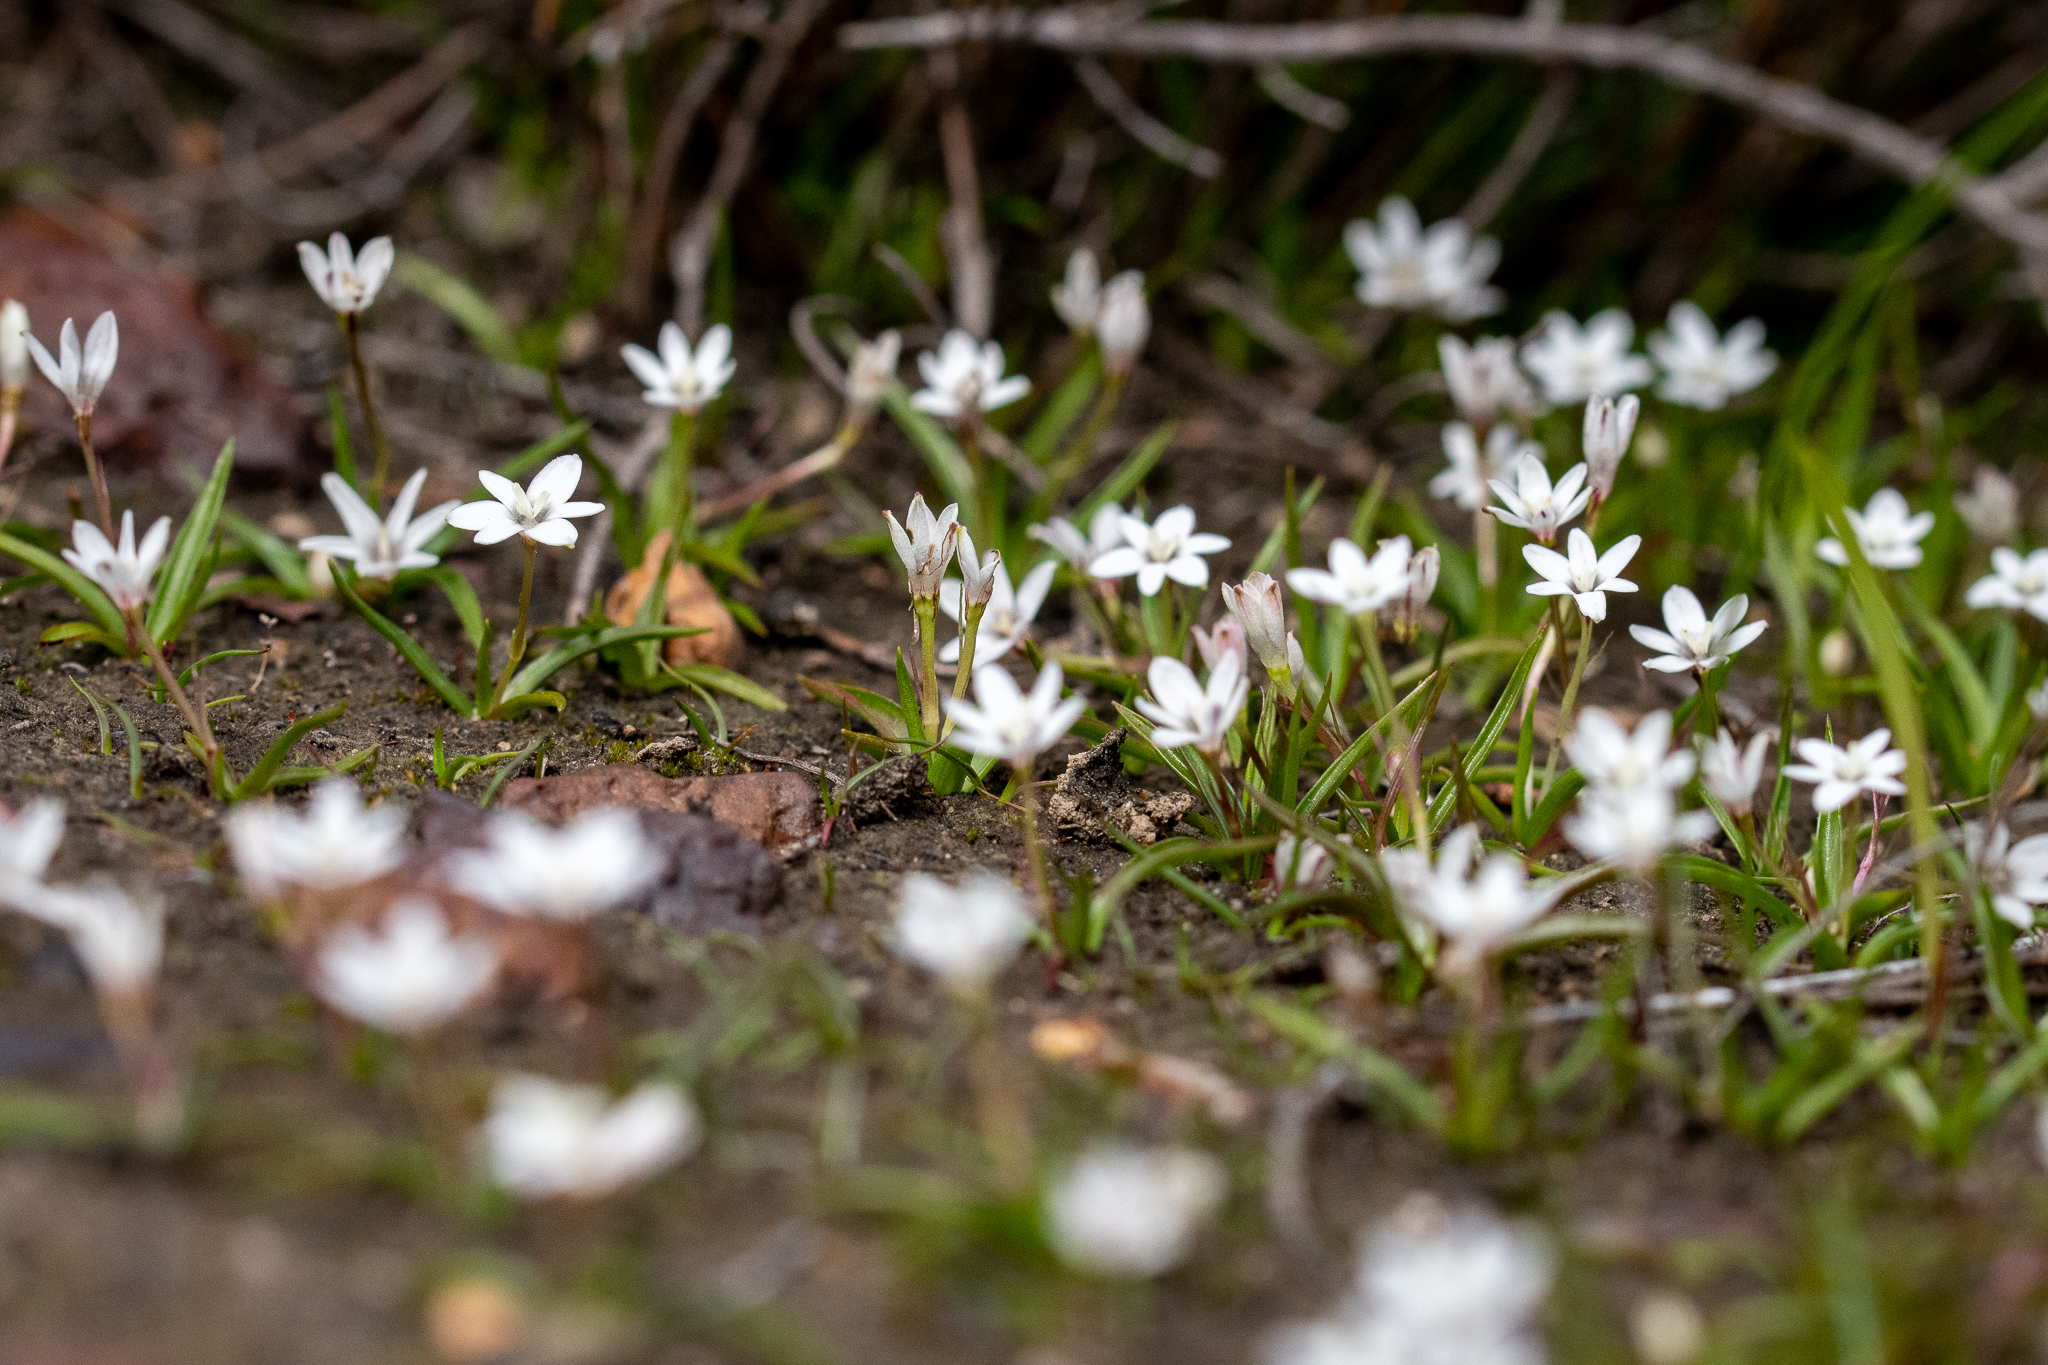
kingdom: Plantae
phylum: Tracheophyta
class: Liliopsida
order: Asparagales
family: Hypoxidaceae
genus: Pauridia
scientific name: Pauridia minuta
